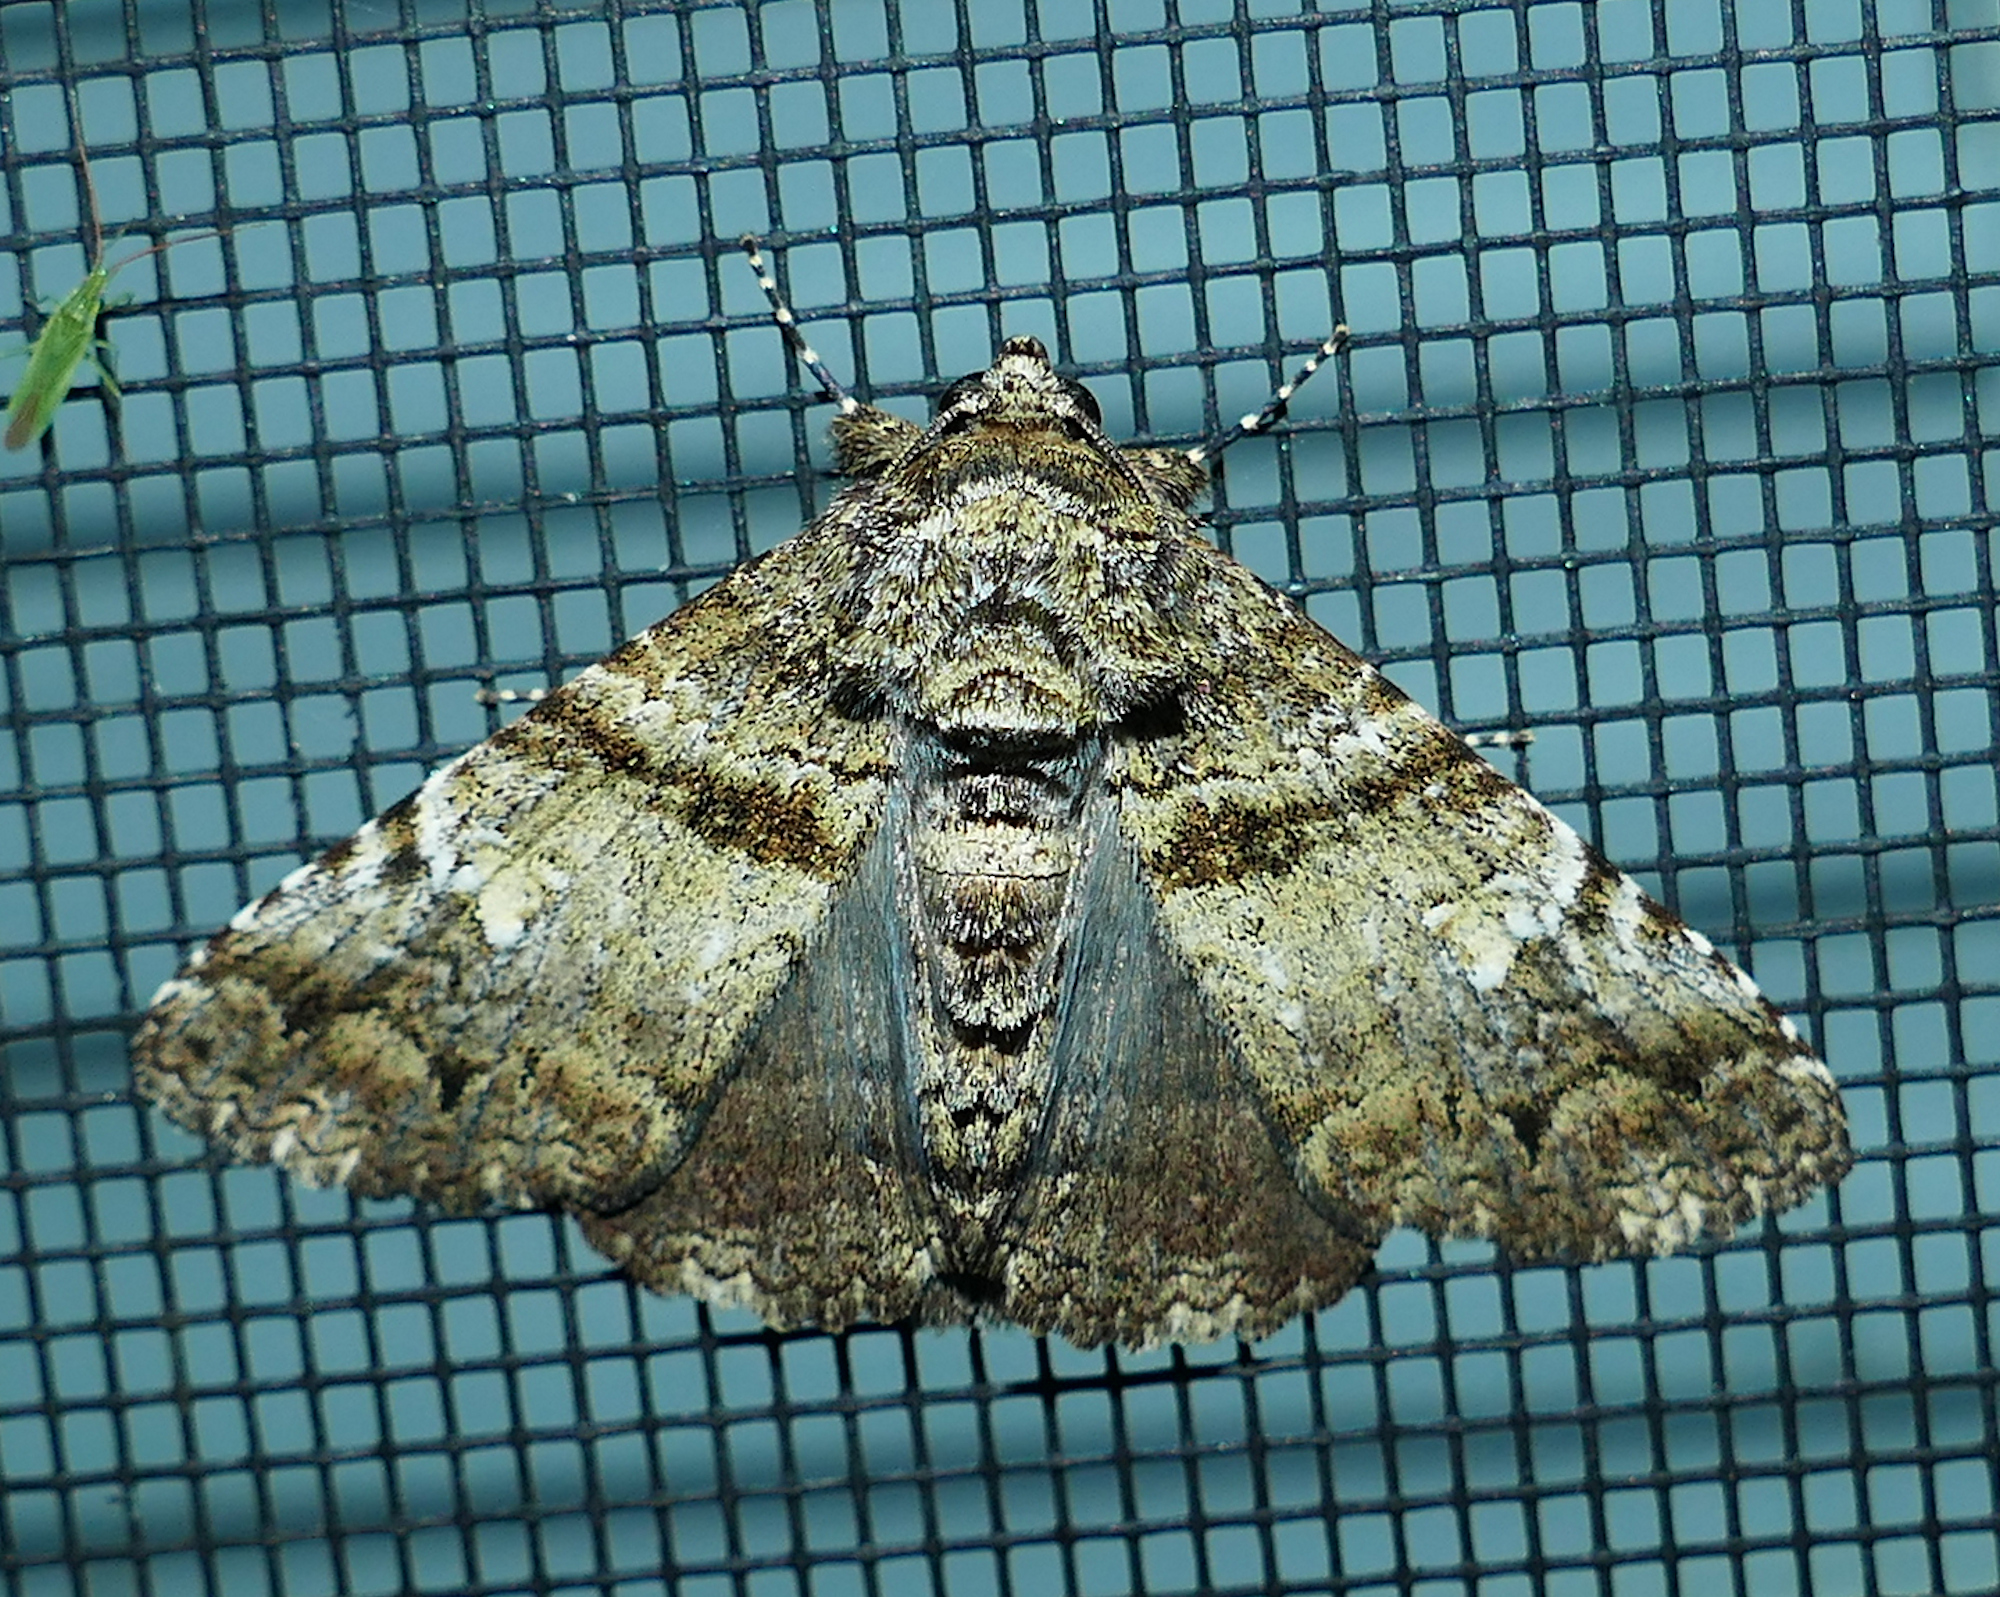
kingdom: Animalia
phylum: Arthropoda
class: Insecta
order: Lepidoptera
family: Erebidae
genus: Metria
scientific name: Metria amella
